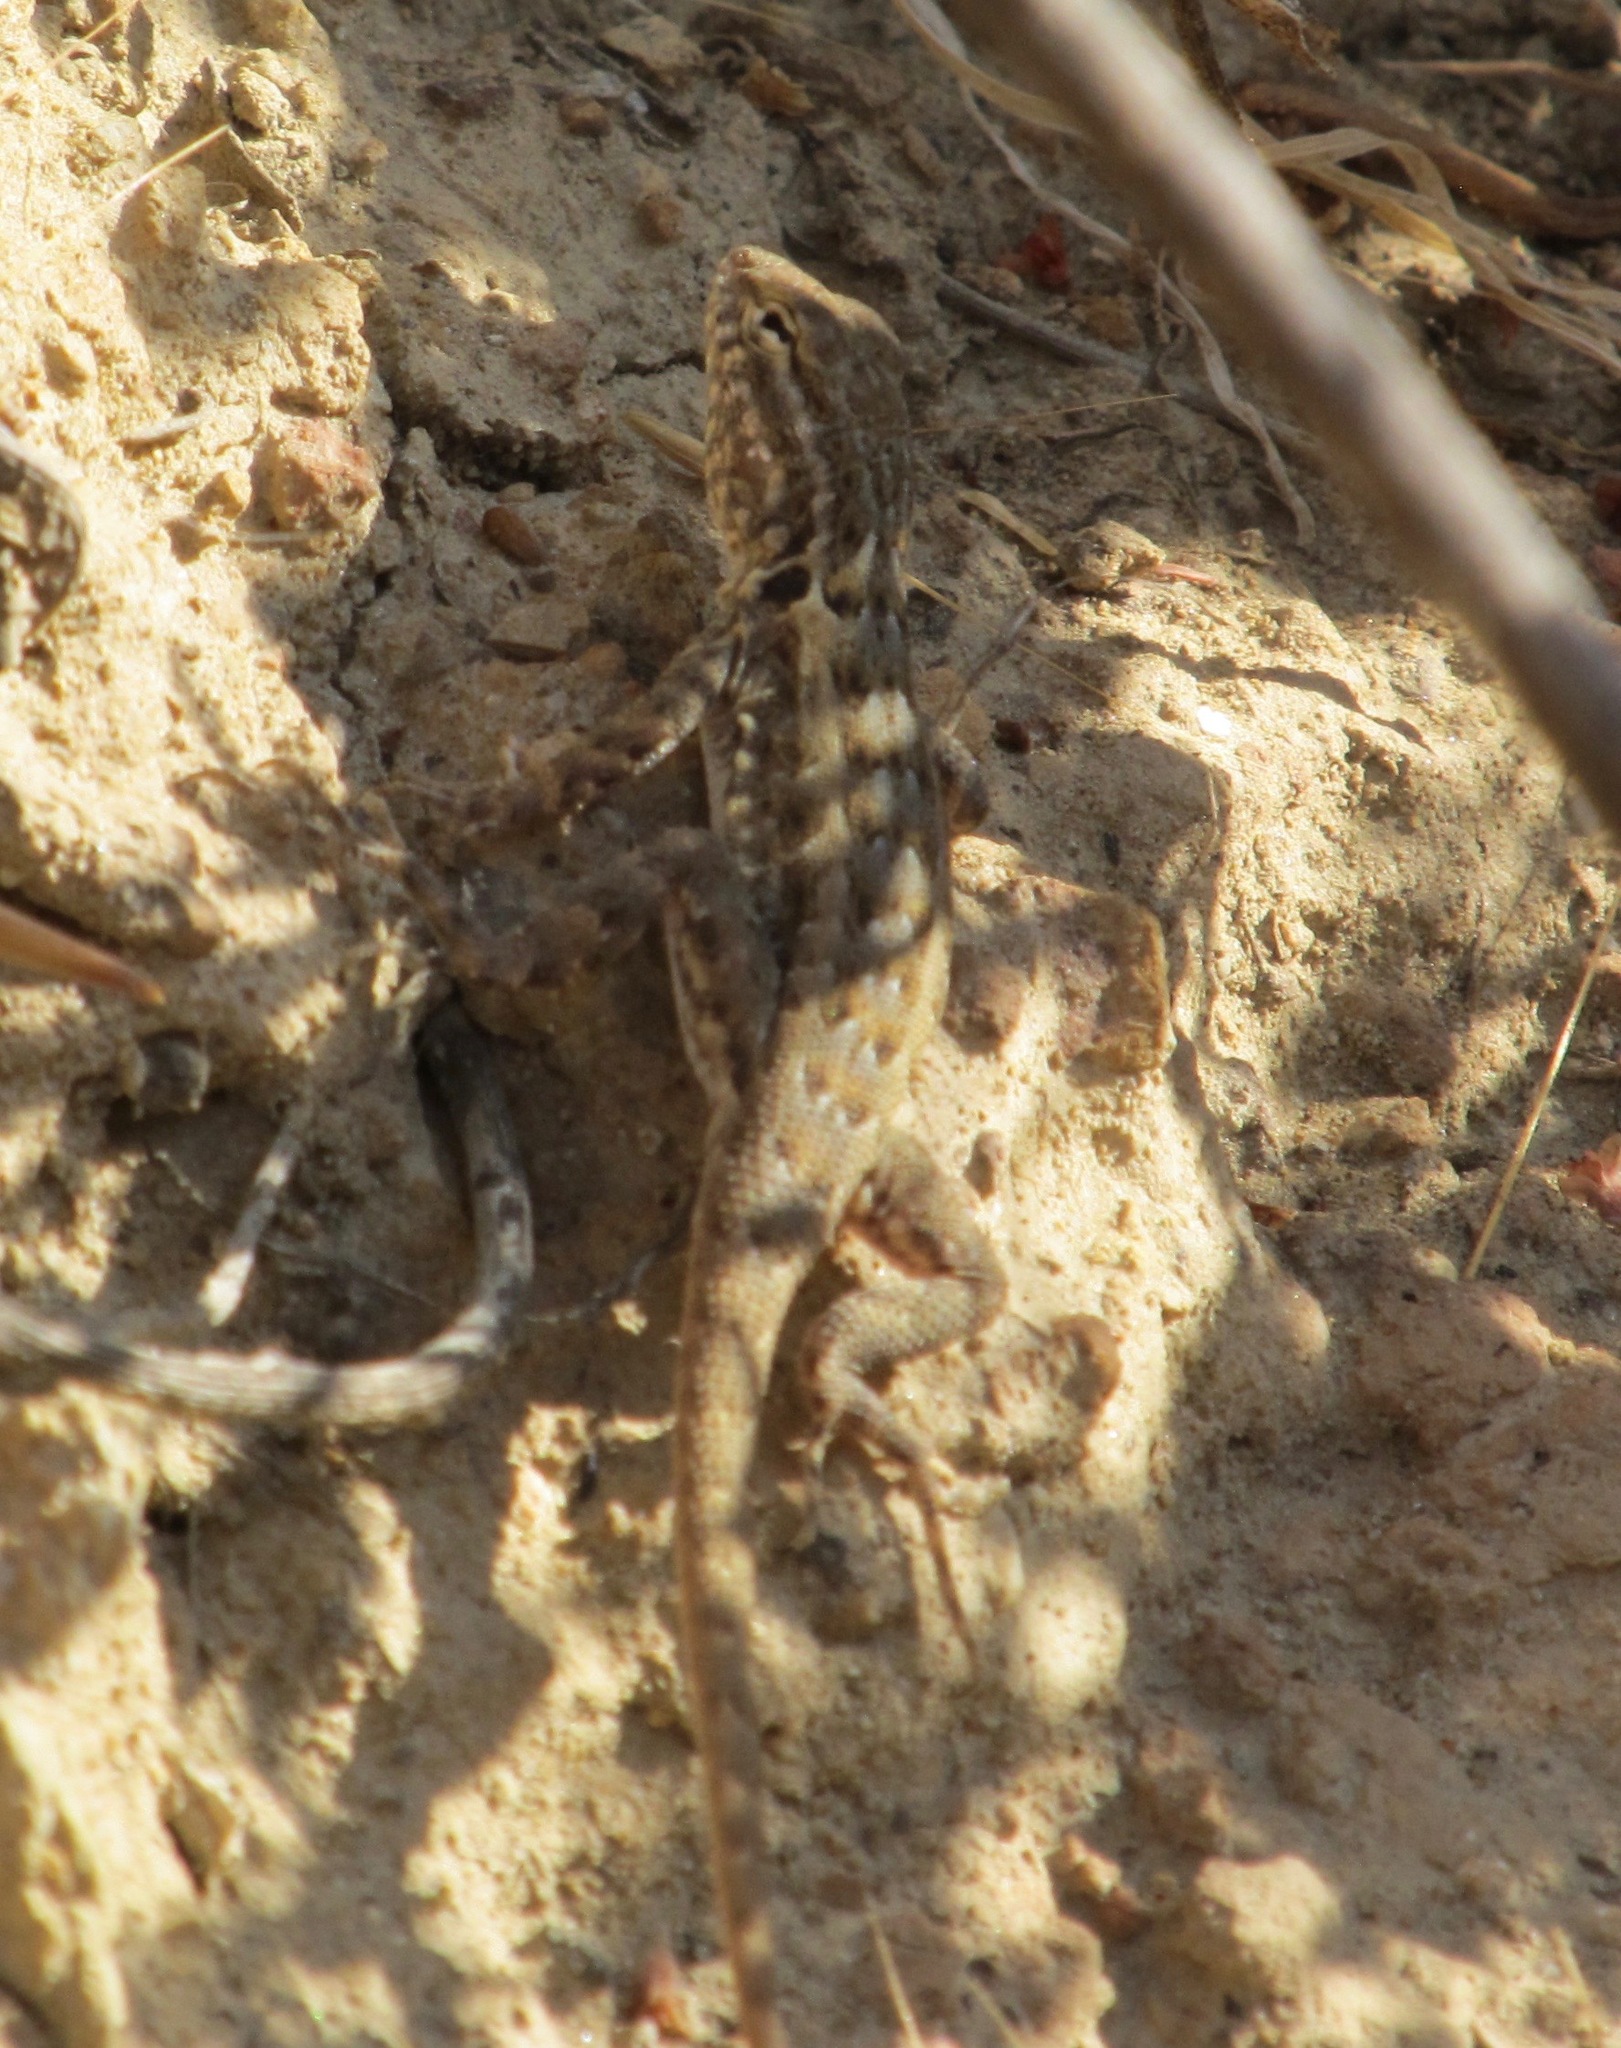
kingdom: Animalia
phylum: Chordata
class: Squamata
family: Phrynosomatidae
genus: Uta
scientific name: Uta stansburiana
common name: Side-blotched lizard
